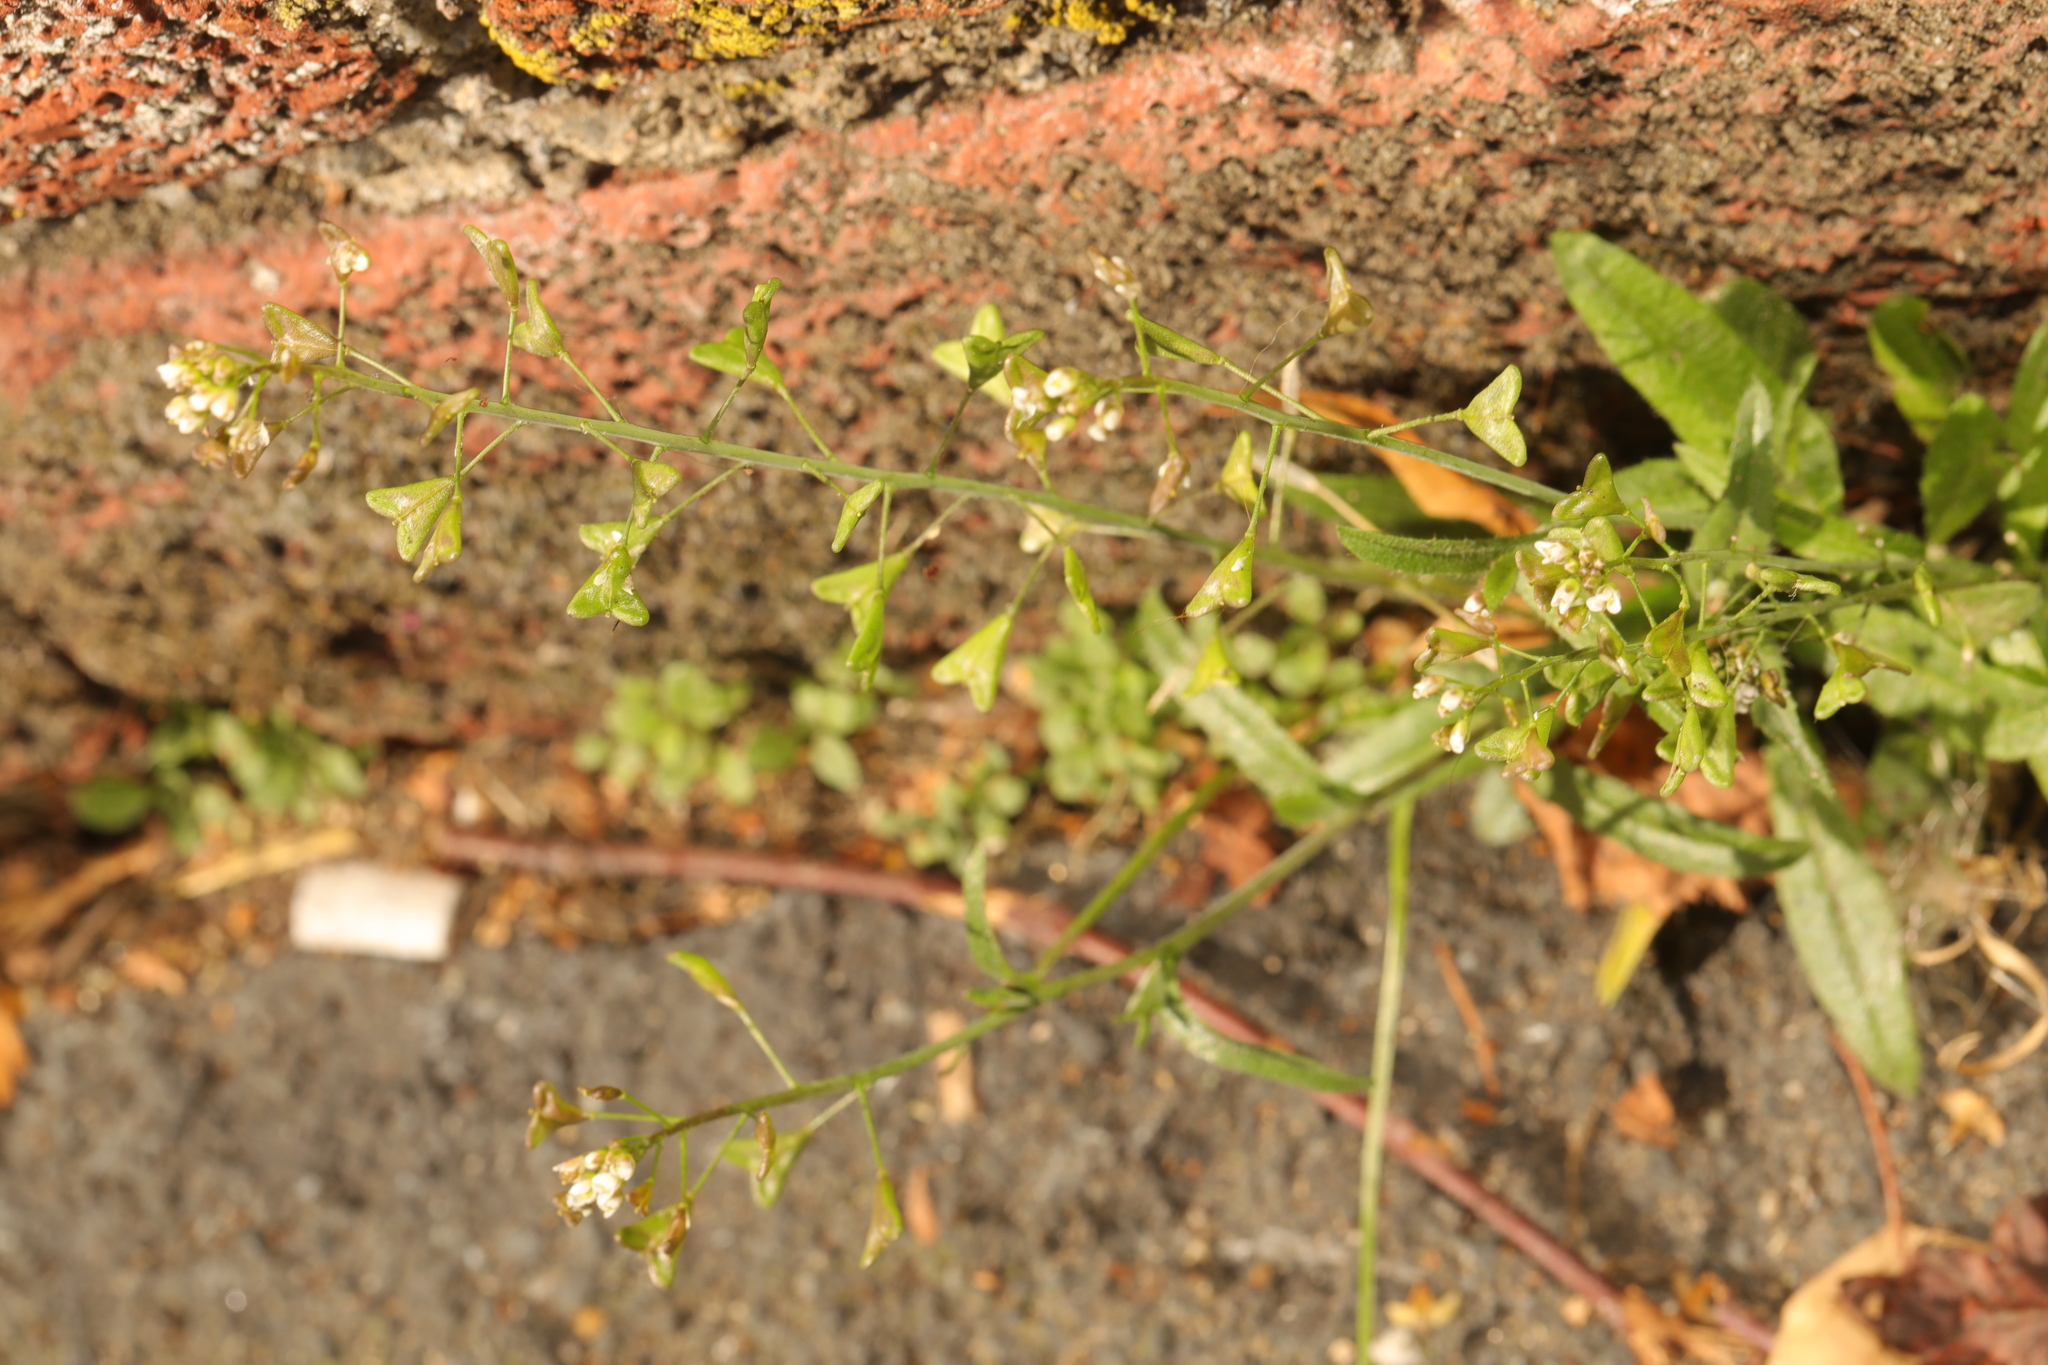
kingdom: Plantae
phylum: Tracheophyta
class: Magnoliopsida
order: Brassicales
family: Brassicaceae
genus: Capsella
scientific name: Capsella bursa-pastoris
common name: Shepherd's purse
